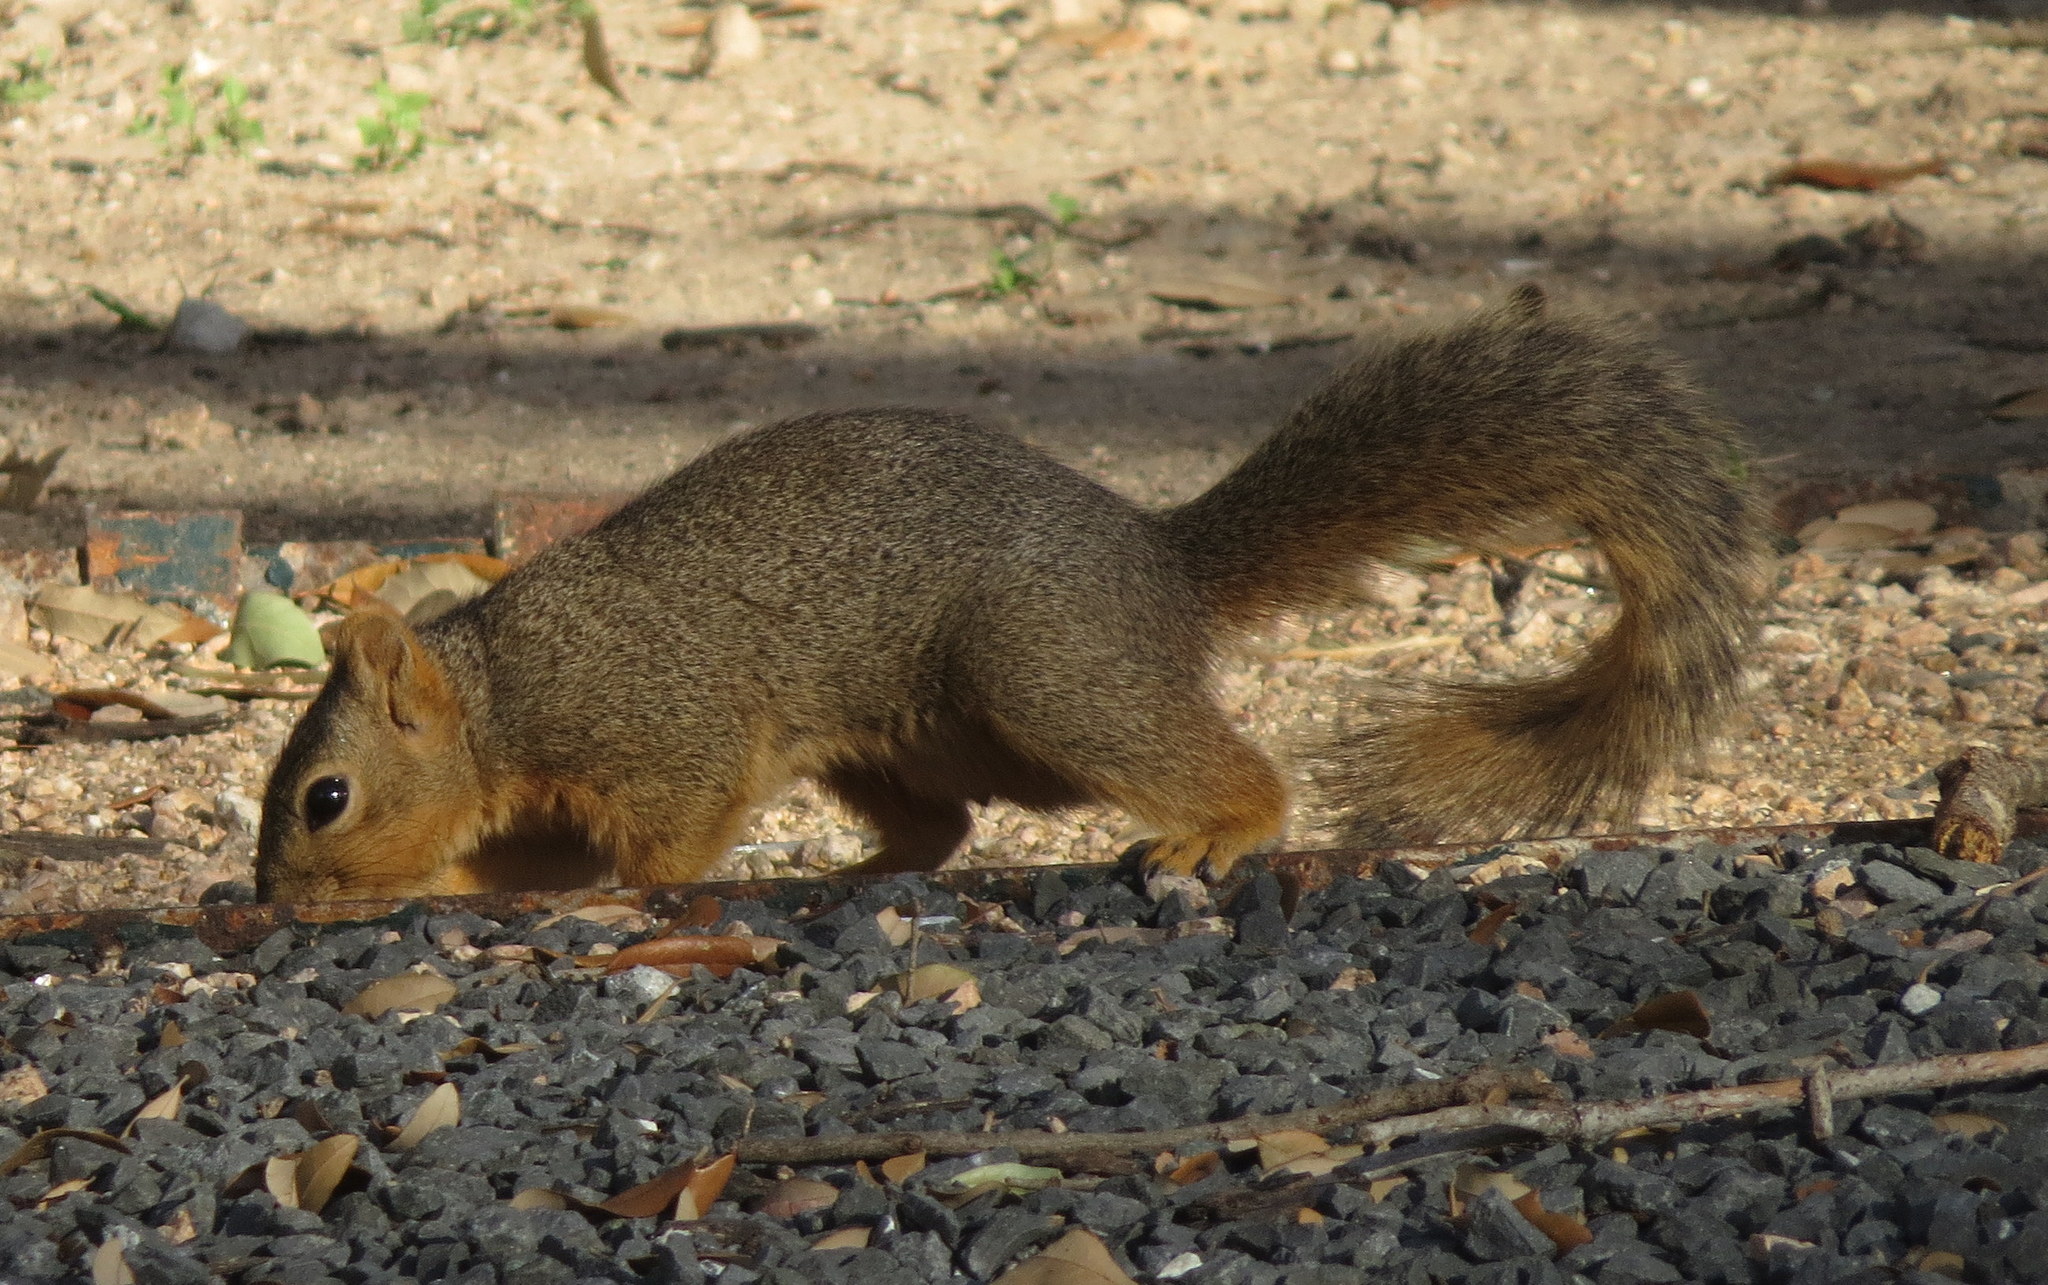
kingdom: Animalia
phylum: Chordata
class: Mammalia
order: Rodentia
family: Sciuridae
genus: Sciurus
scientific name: Sciurus niger
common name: Fox squirrel
